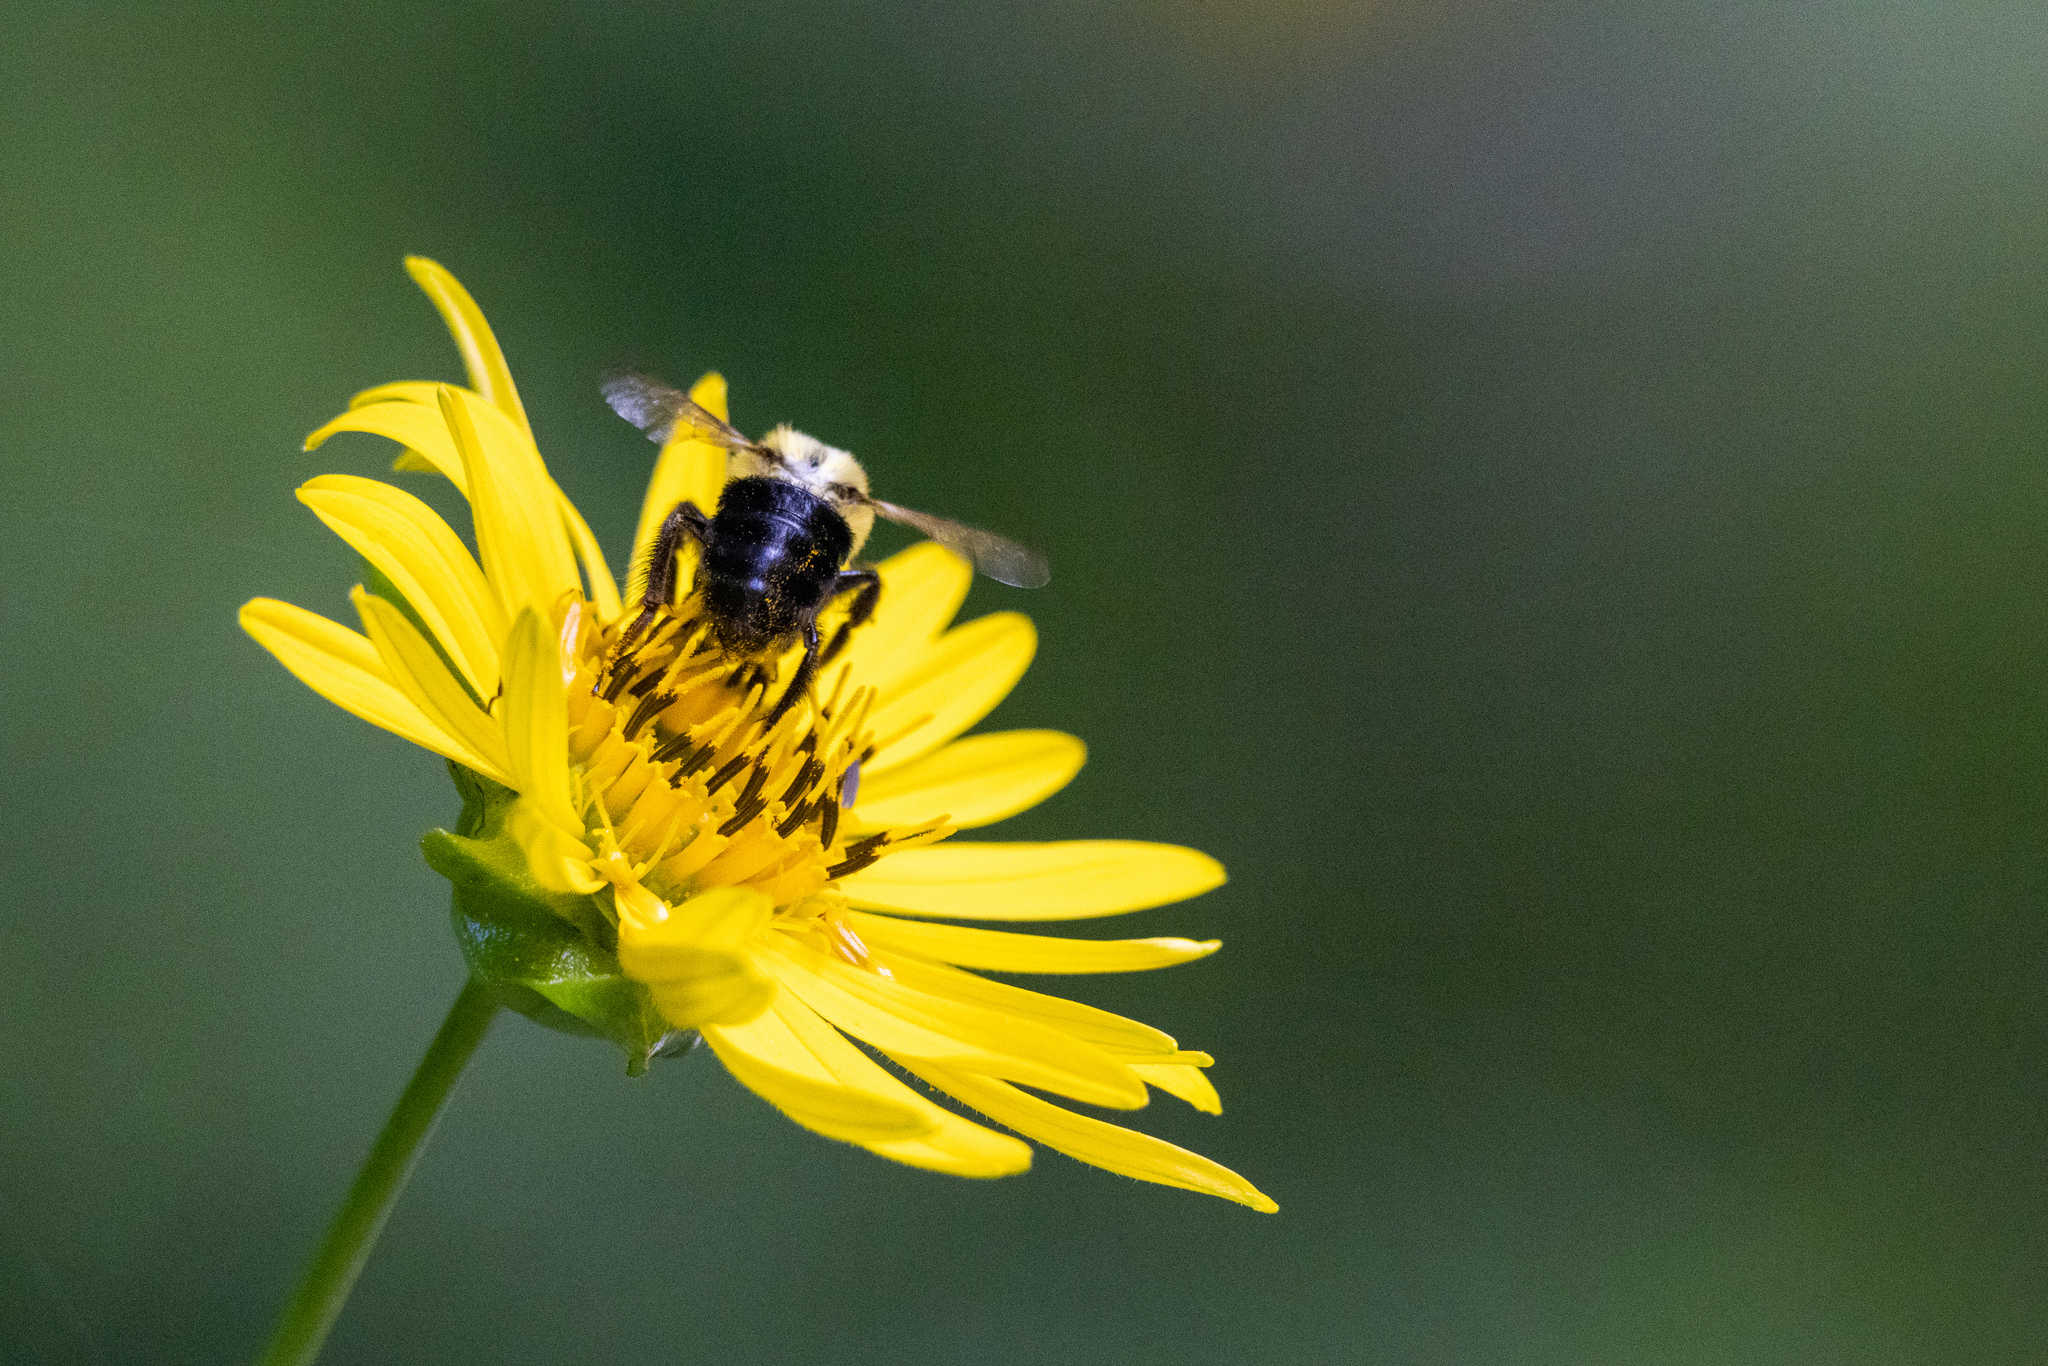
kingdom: Animalia
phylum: Arthropoda
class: Insecta
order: Hymenoptera
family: Apidae
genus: Bombus
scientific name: Bombus impatiens
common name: Common eastern bumble bee
